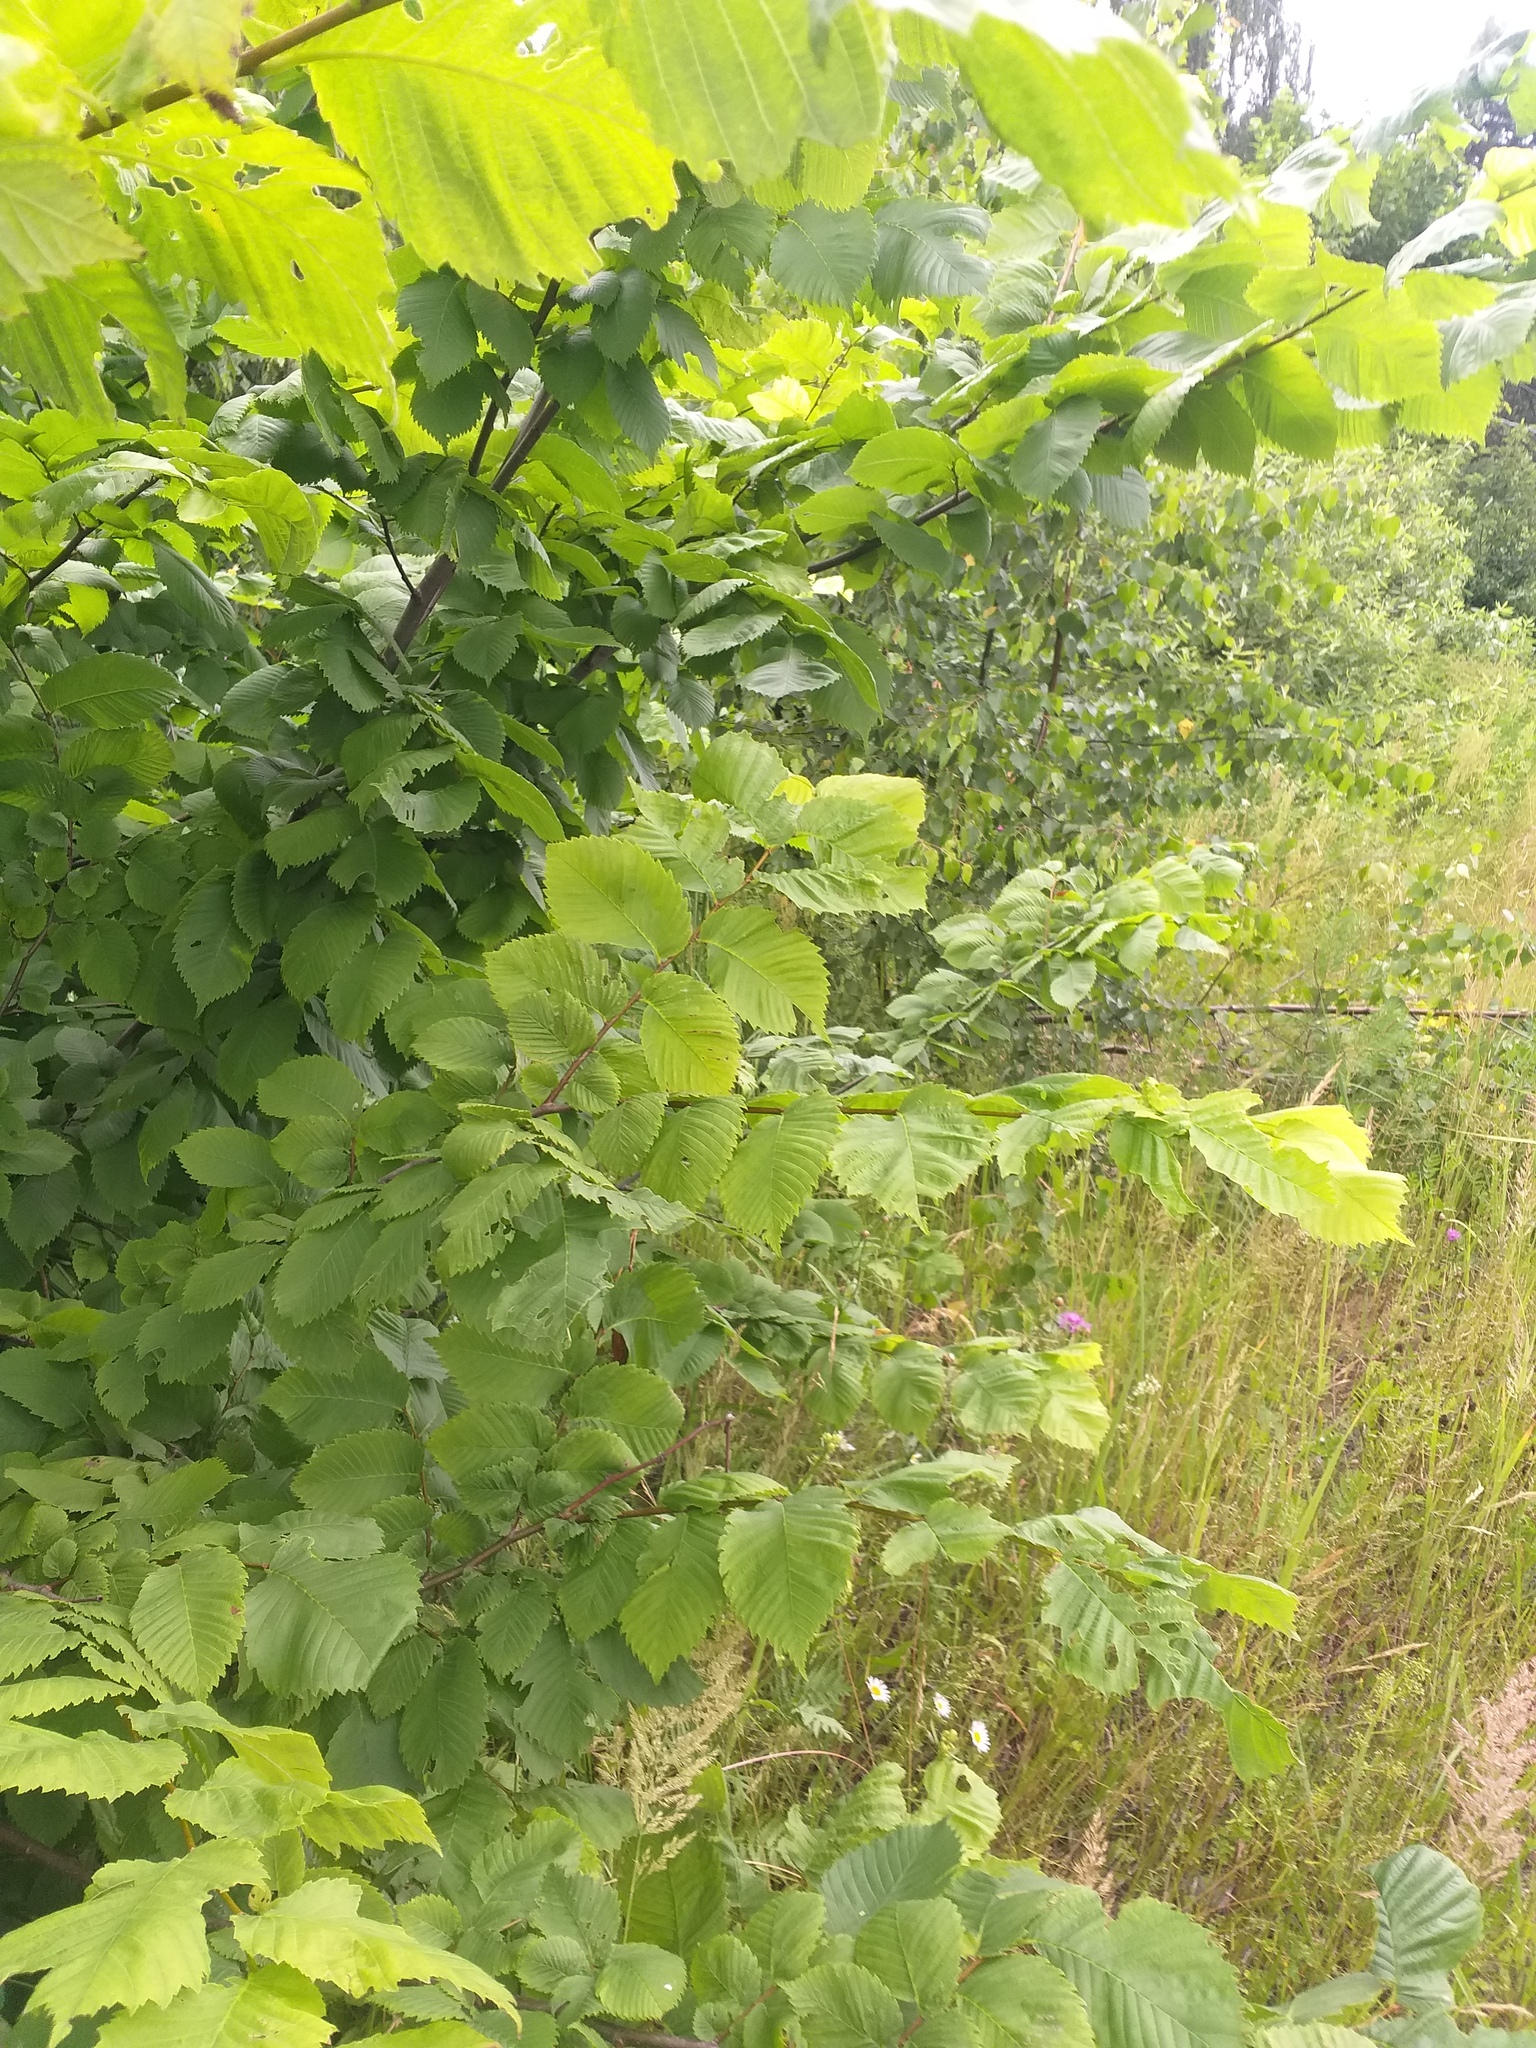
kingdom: Plantae
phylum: Tracheophyta
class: Magnoliopsida
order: Rosales
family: Ulmaceae
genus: Ulmus
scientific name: Ulmus laevis
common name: European white-elm
